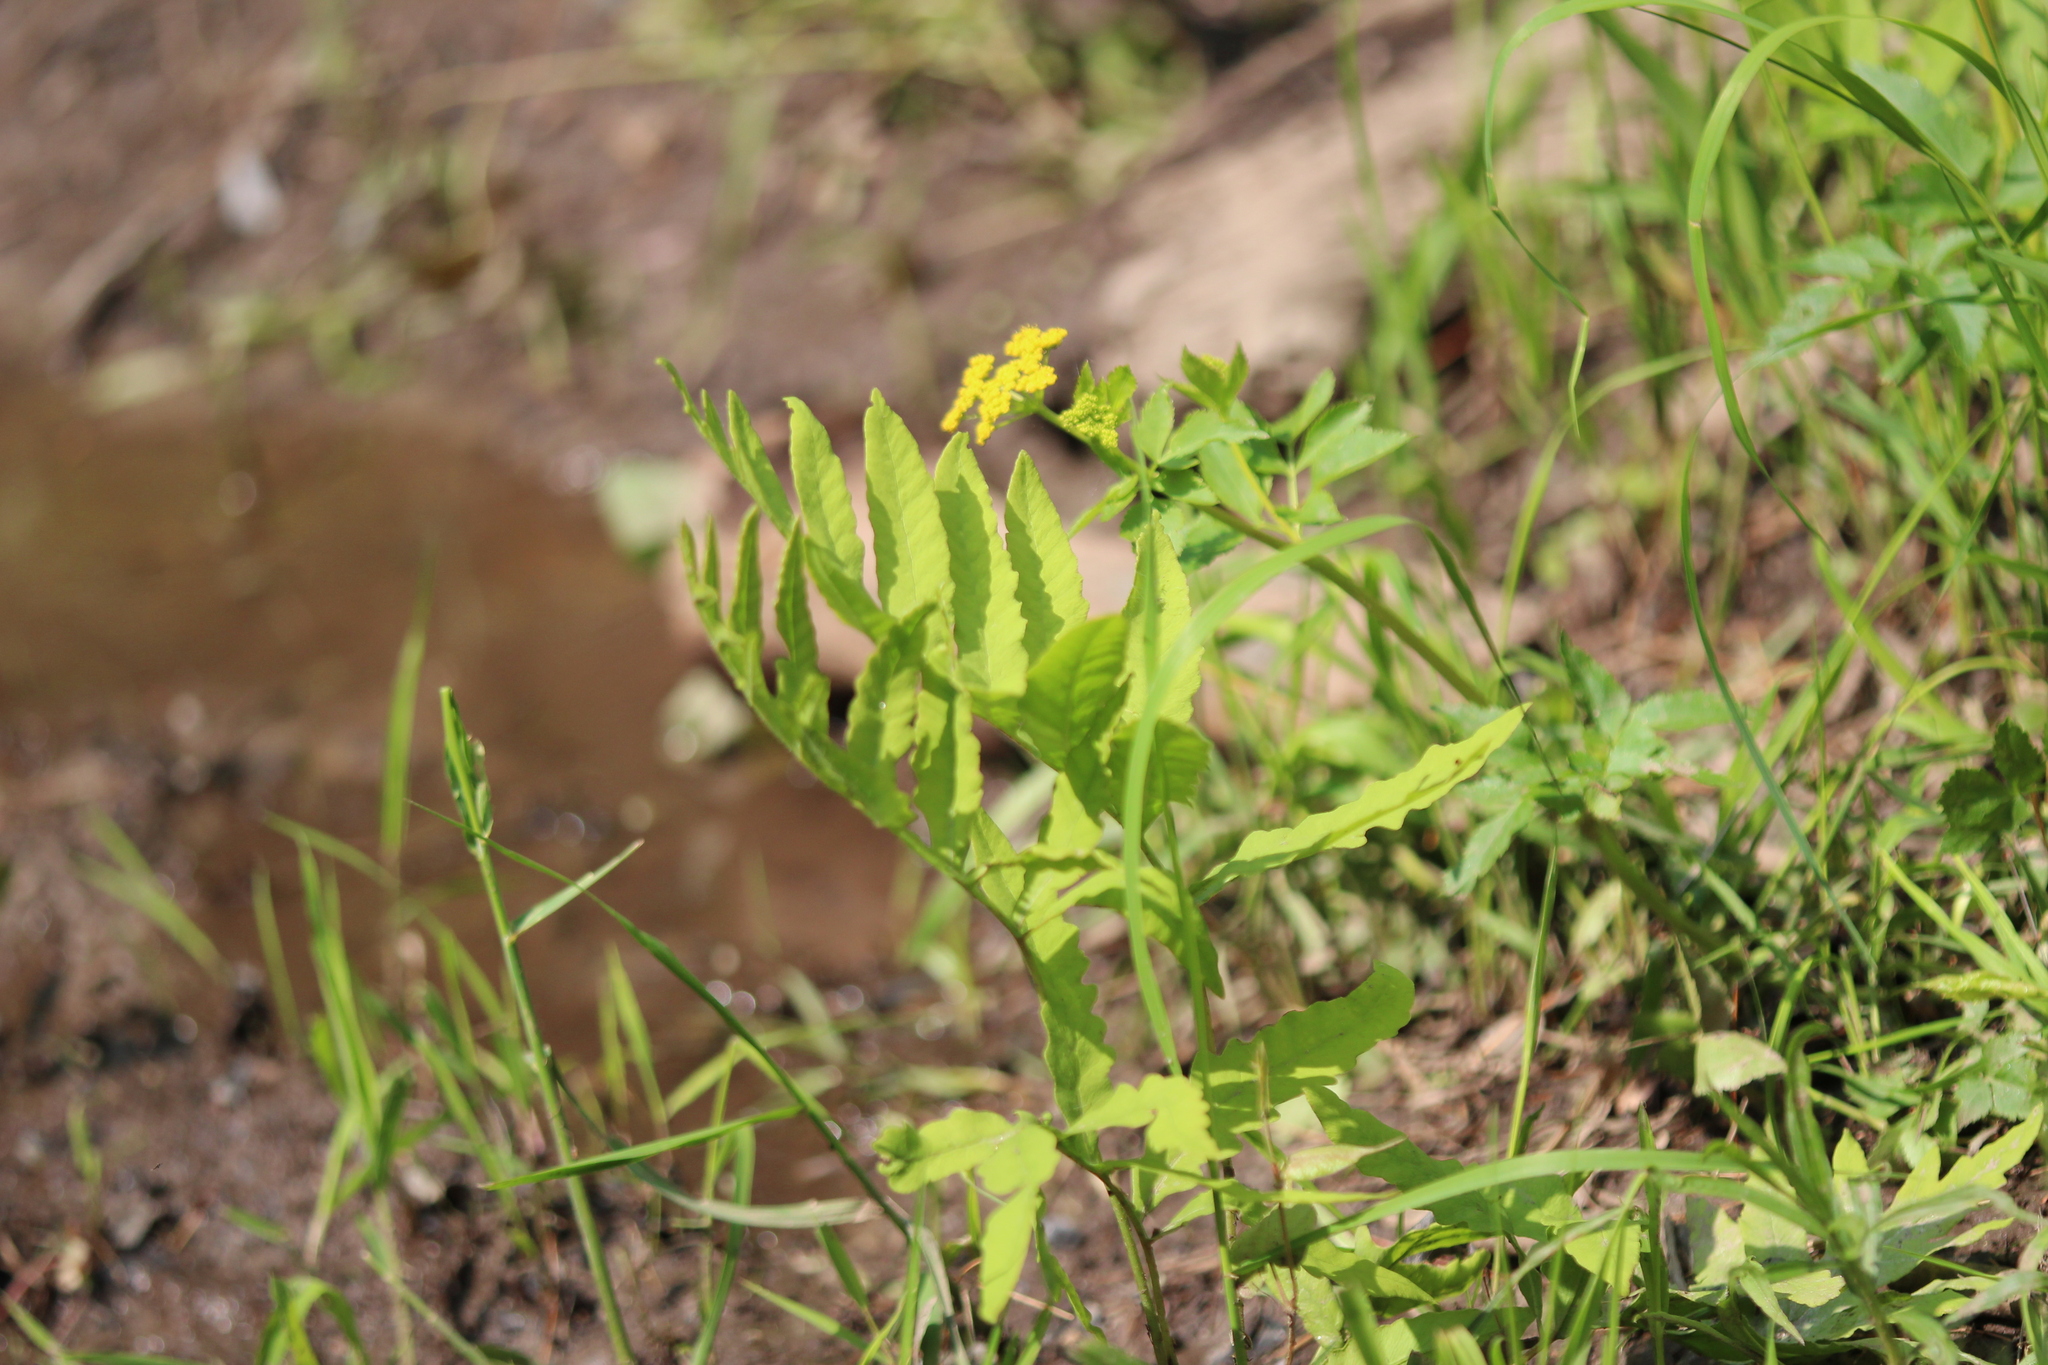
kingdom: Plantae
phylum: Tracheophyta
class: Polypodiopsida
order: Polypodiales
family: Onocleaceae
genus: Onoclea
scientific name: Onoclea sensibilis
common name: Sensitive fern
